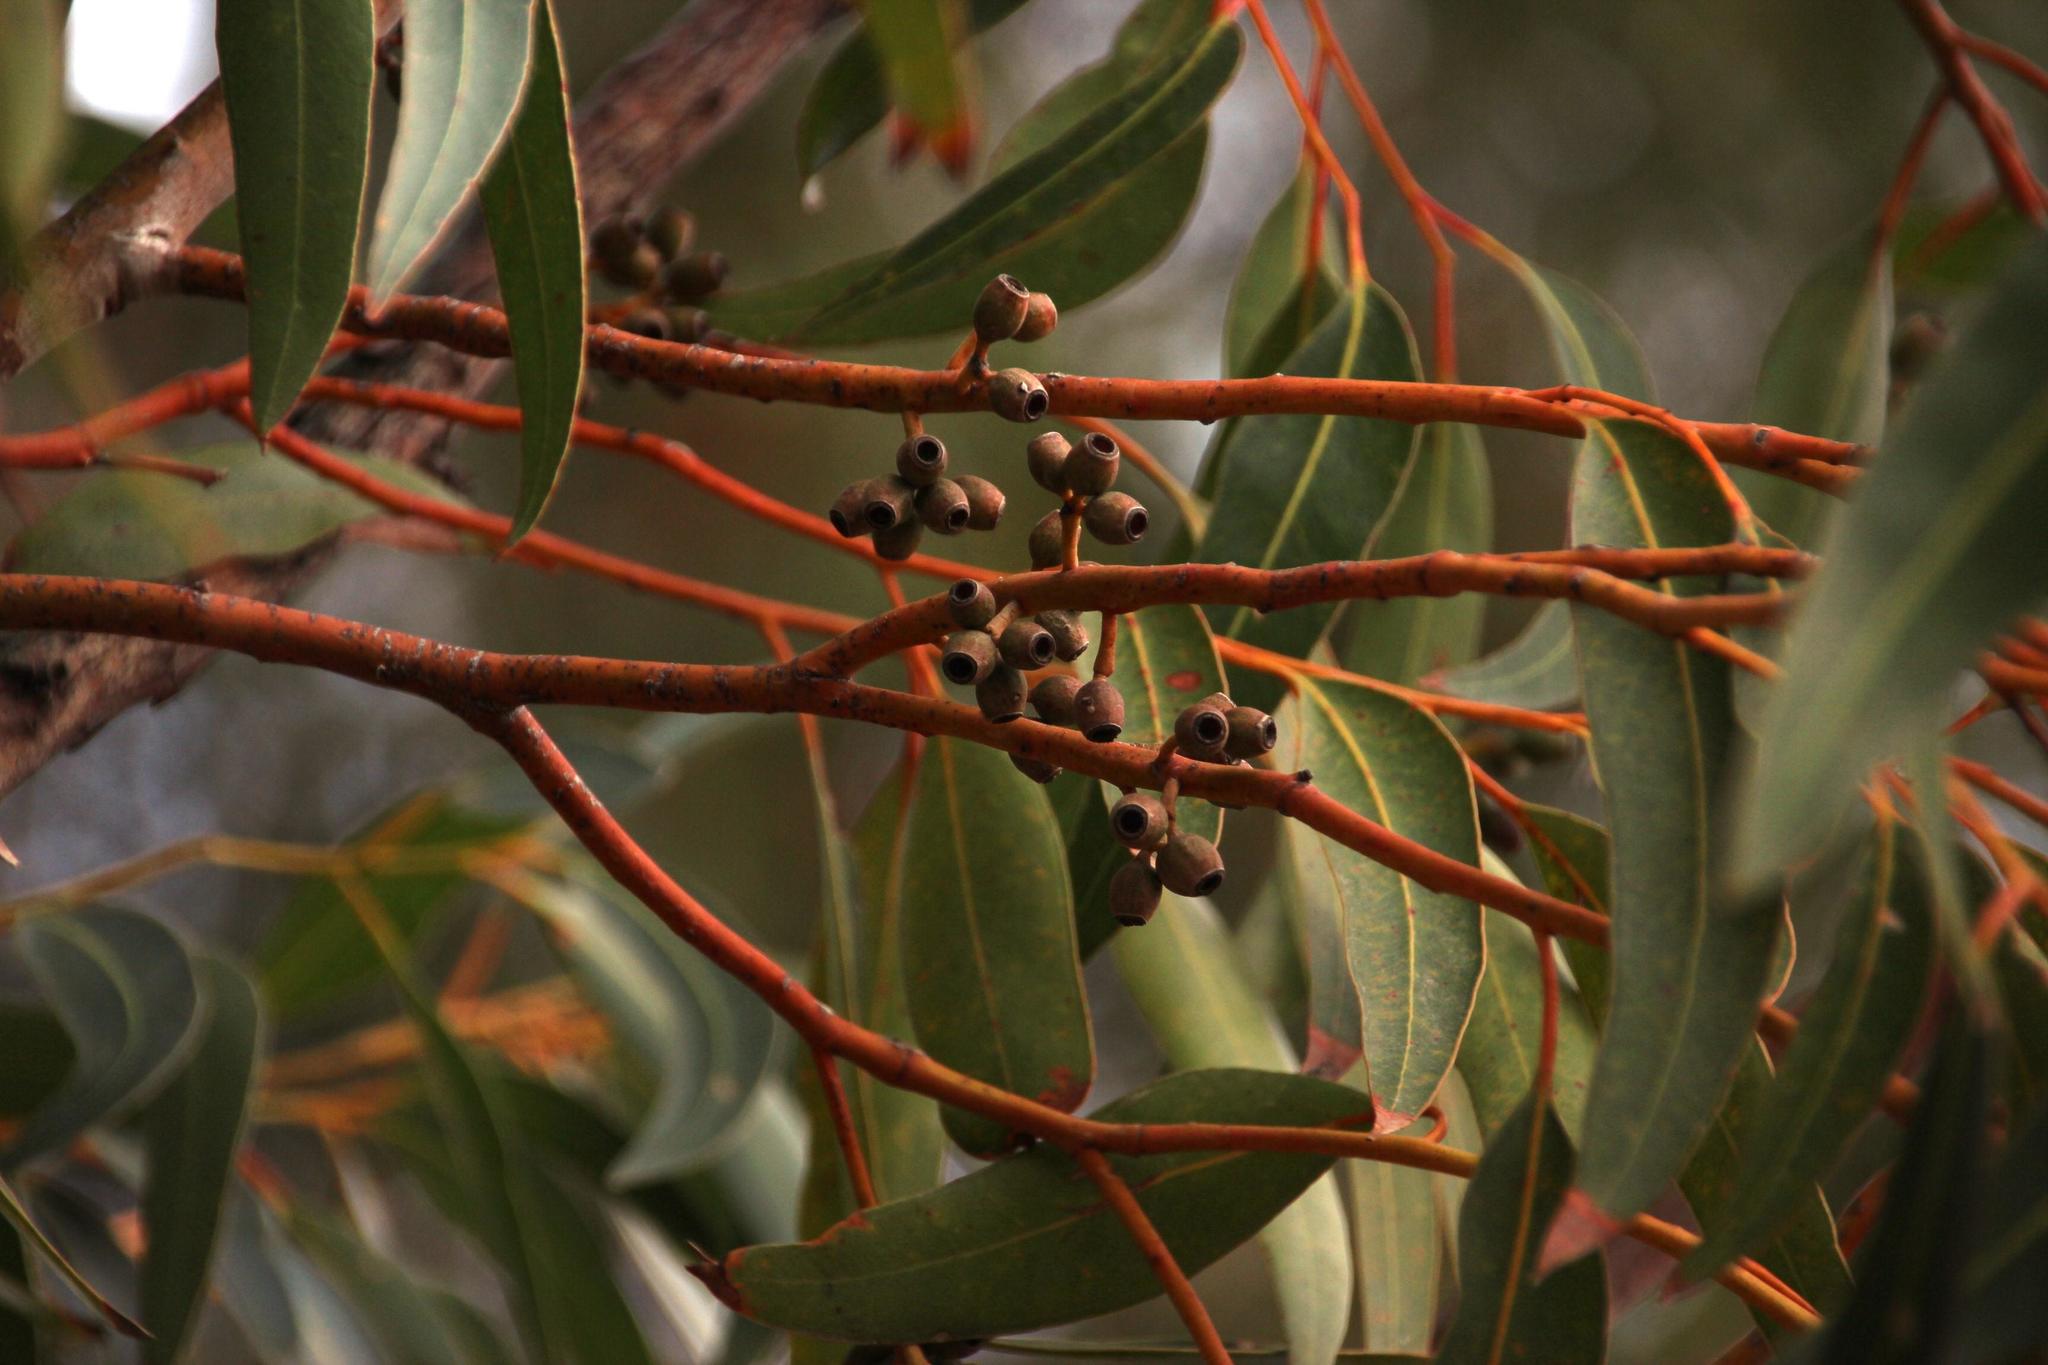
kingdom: Plantae
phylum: Tracheophyta
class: Magnoliopsida
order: Myrtales
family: Myrtaceae
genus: Eucalyptus
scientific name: Eucalyptus cladocalyx
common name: Sugargum
